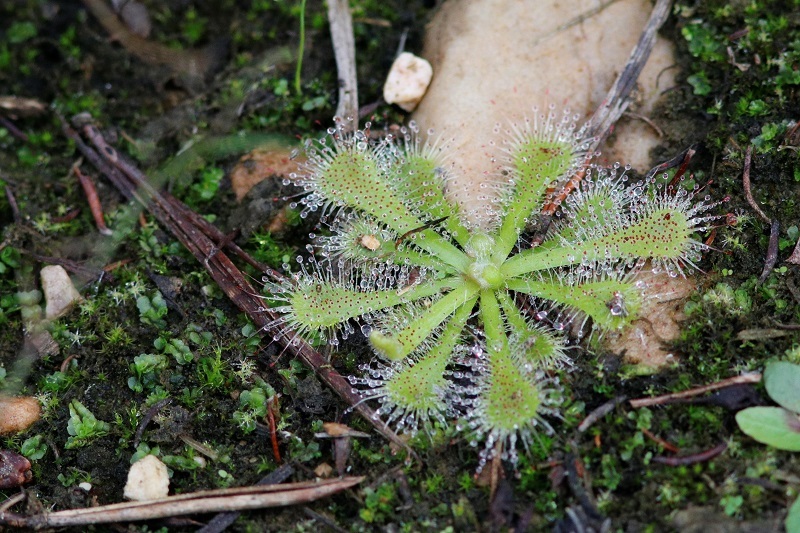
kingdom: Plantae
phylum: Tracheophyta
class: Magnoliopsida
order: Caryophyllales
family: Droseraceae
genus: Drosera
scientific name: Drosera natalensis
